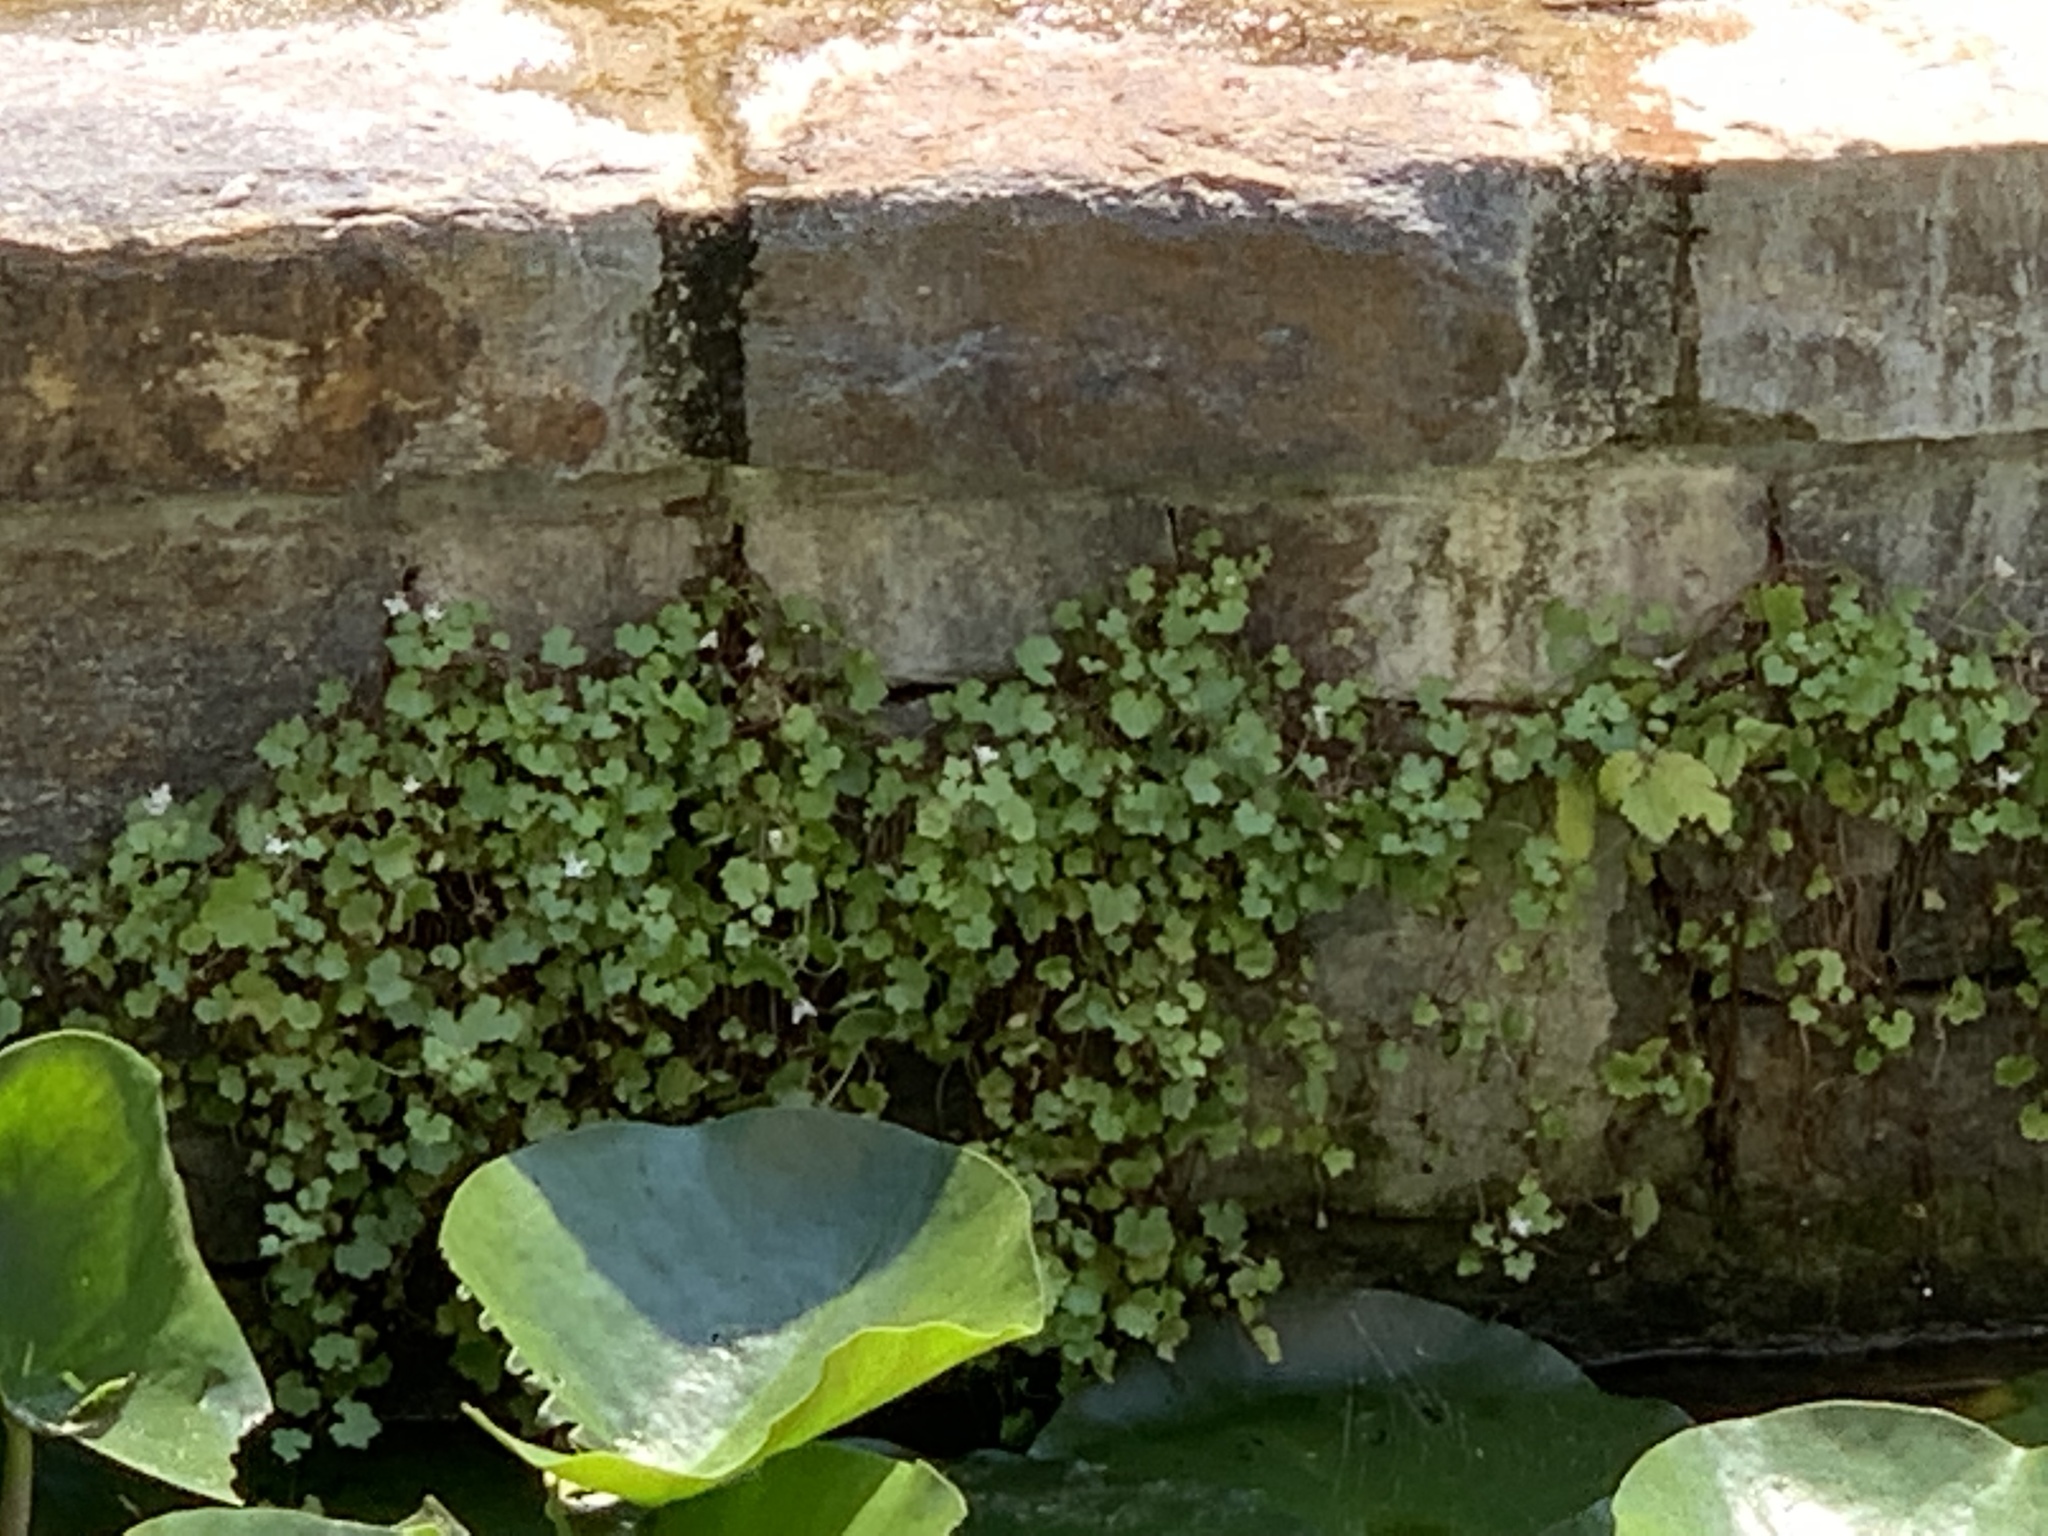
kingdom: Plantae
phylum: Tracheophyta
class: Magnoliopsida
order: Lamiales
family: Plantaginaceae
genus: Cymbalaria
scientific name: Cymbalaria muralis
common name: Ivy-leaved toadflax
